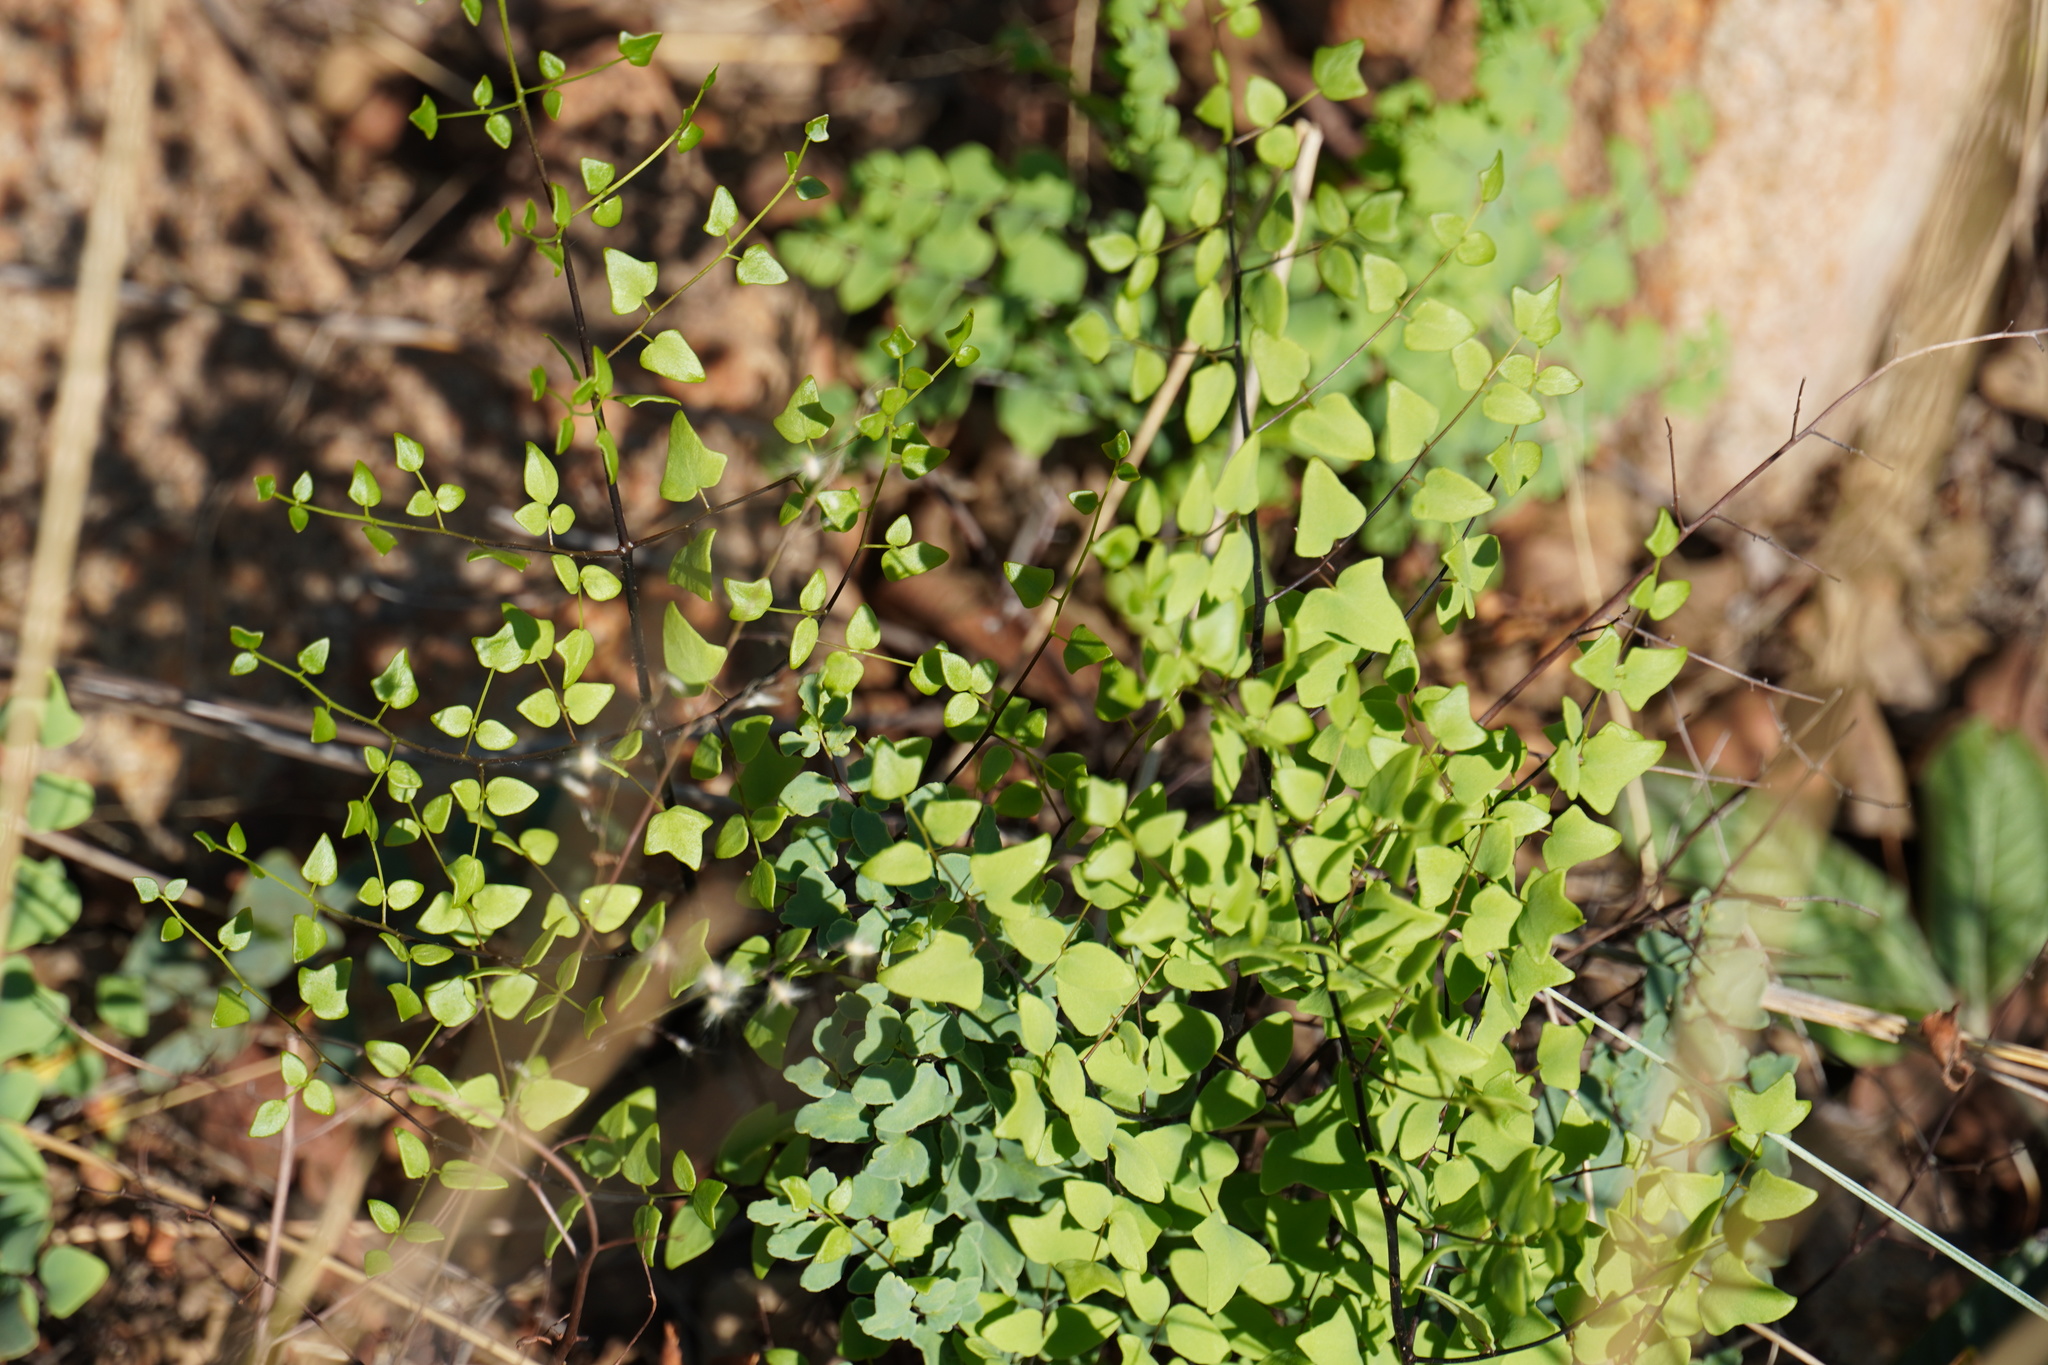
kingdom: Plantae
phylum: Tracheophyta
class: Polypodiopsida
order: Polypodiales
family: Pteridaceae
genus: Pellaea
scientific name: Pellaea calomelanos
